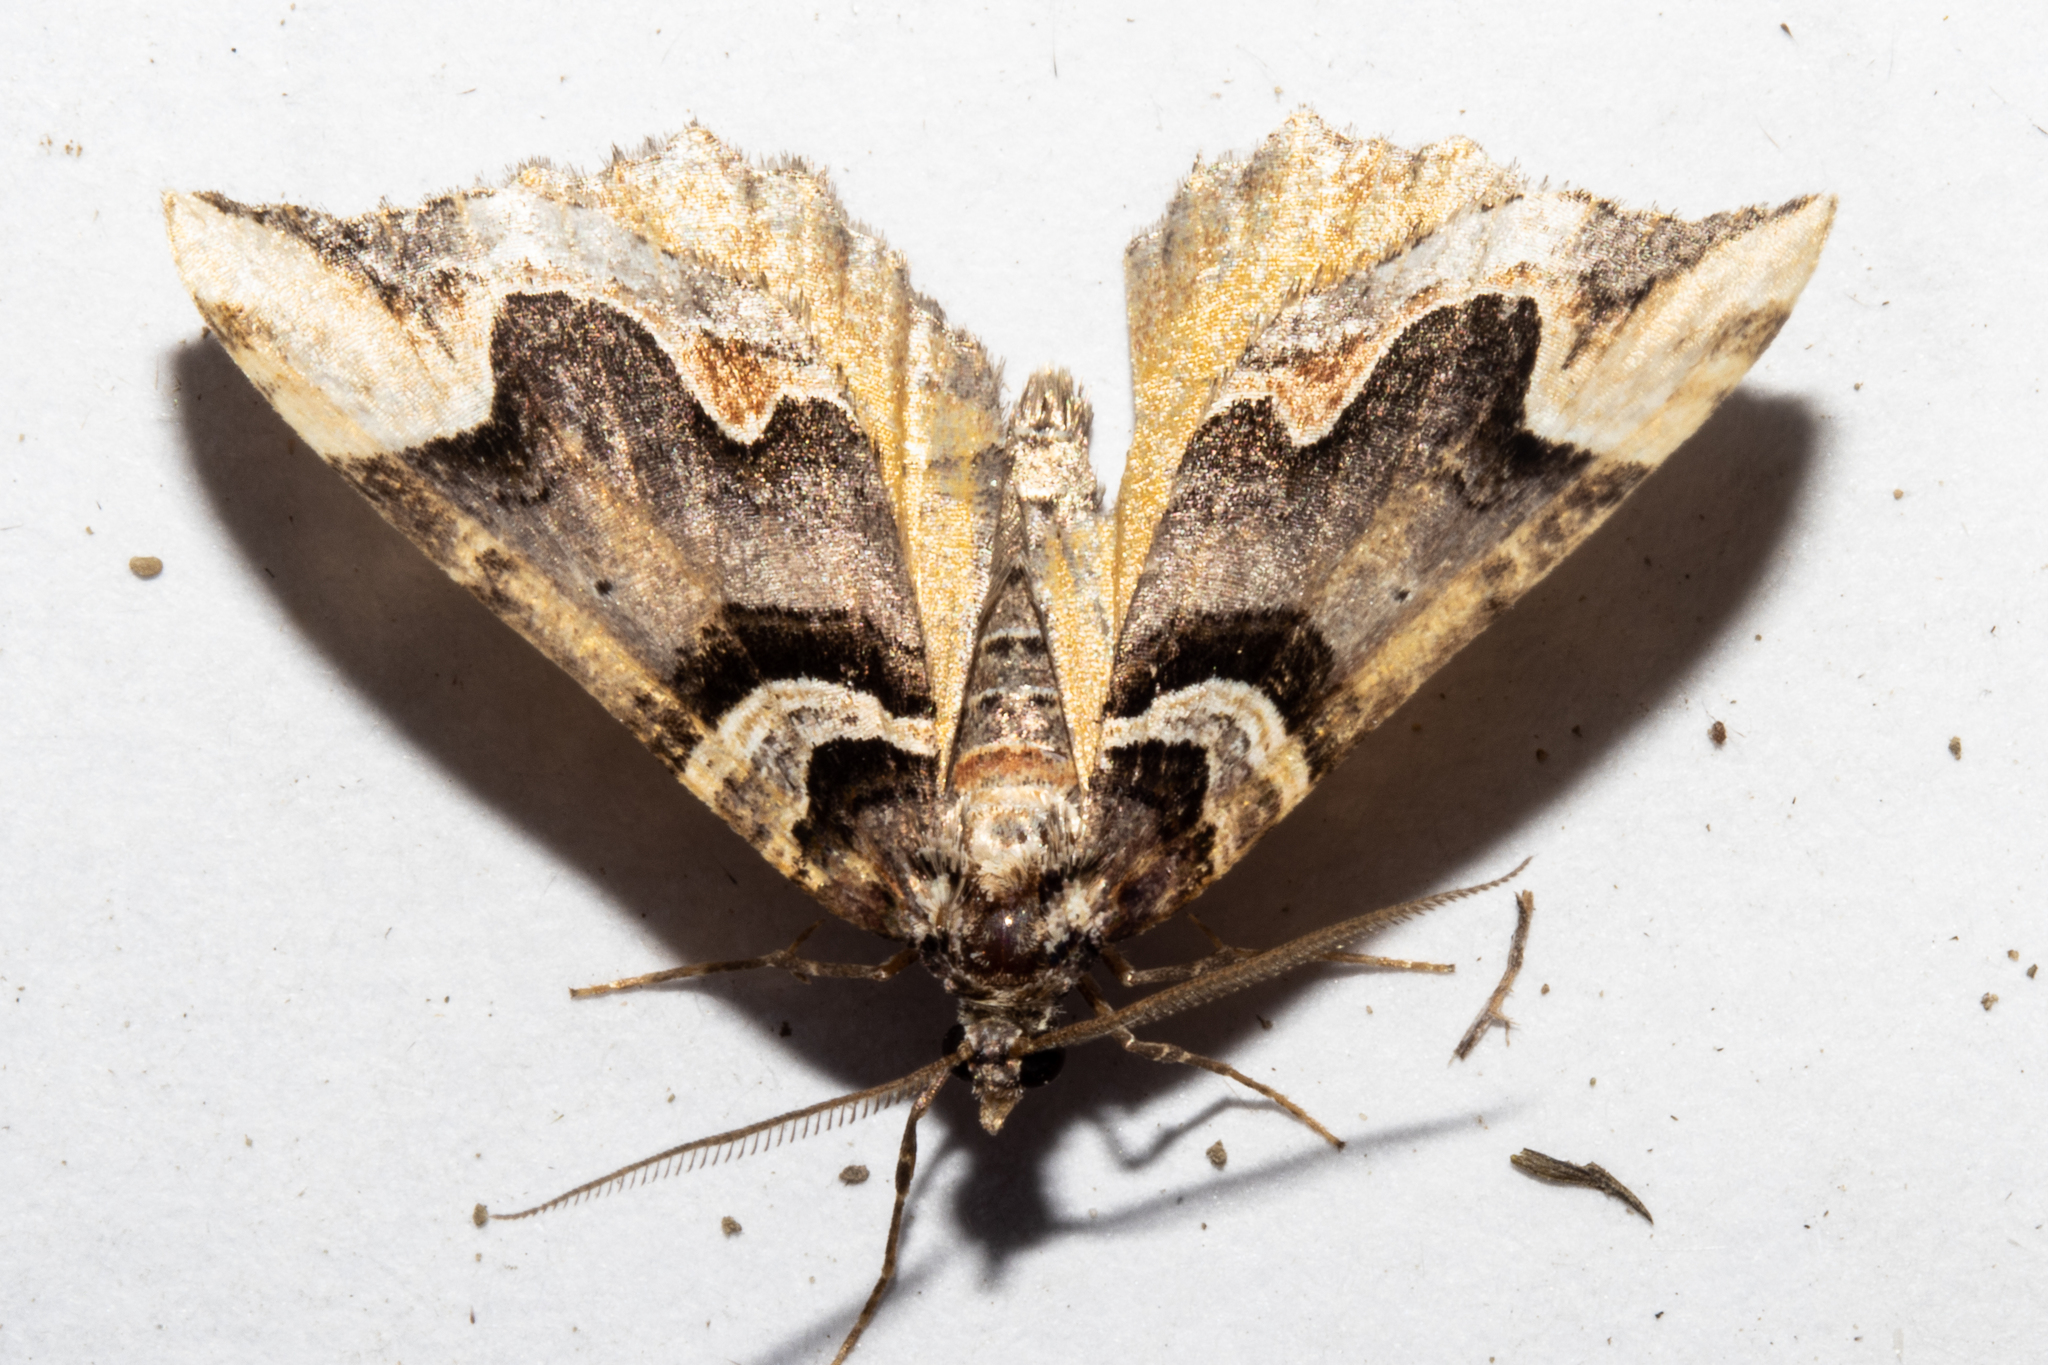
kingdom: Animalia
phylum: Arthropoda
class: Insecta
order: Lepidoptera
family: Geometridae
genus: Asaphodes
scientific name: Asaphodes chlamydota
